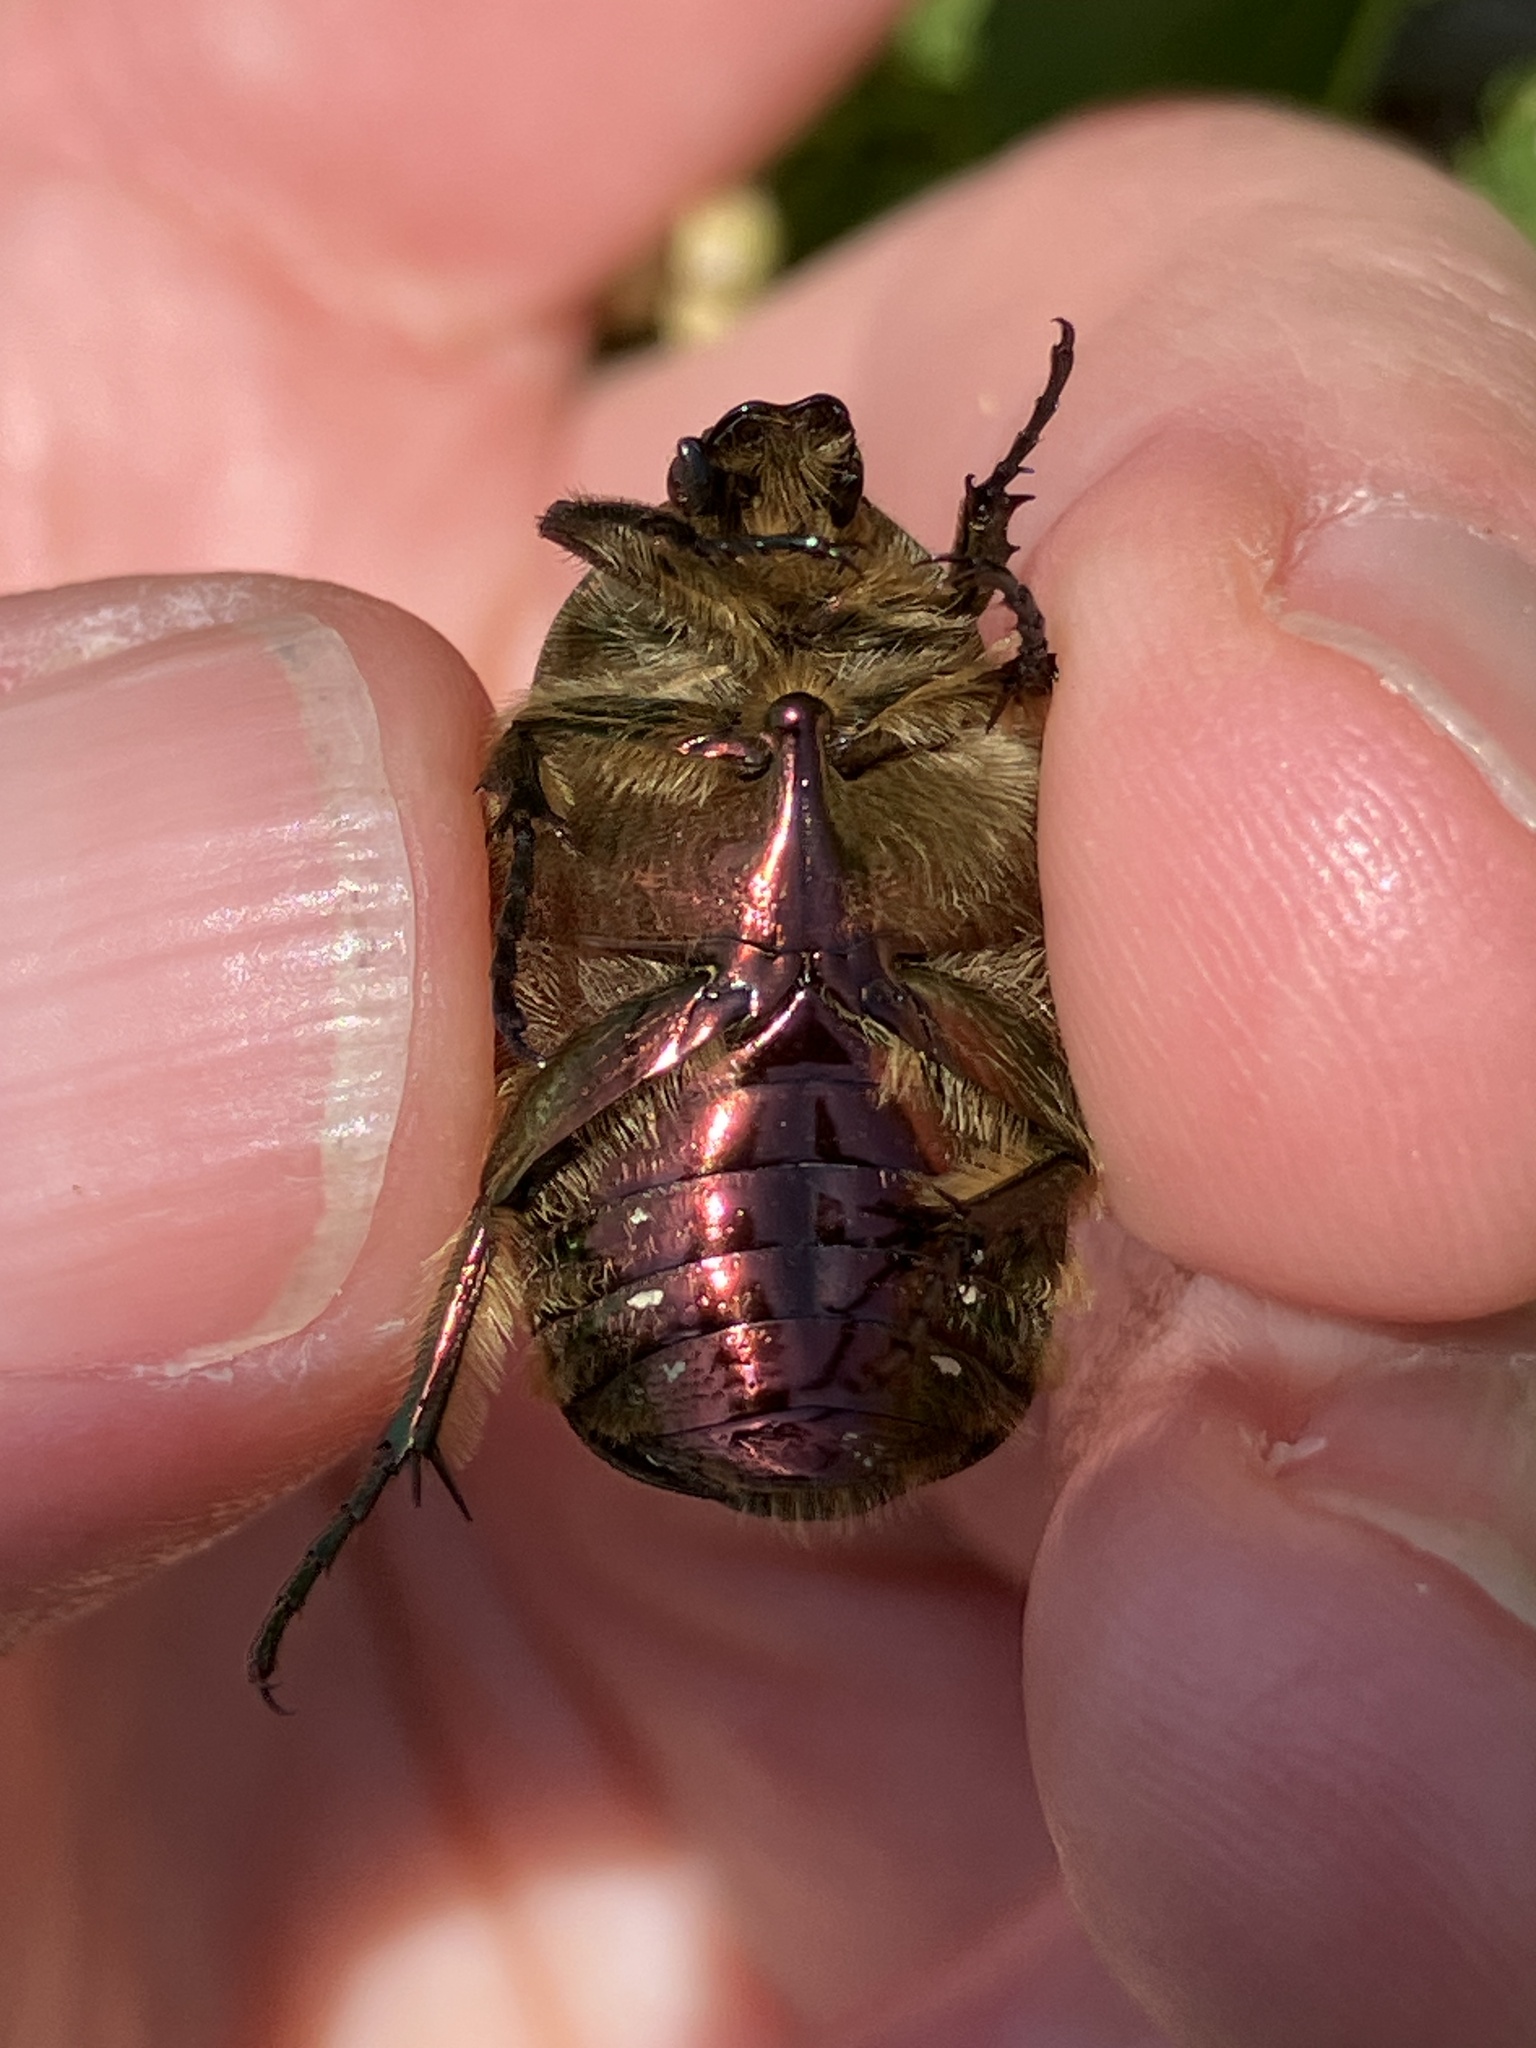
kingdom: Animalia
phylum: Arthropoda
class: Insecta
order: Coleoptera
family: Scarabaeidae
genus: Cetonia
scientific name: Cetonia aurata
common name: Rose chafer
